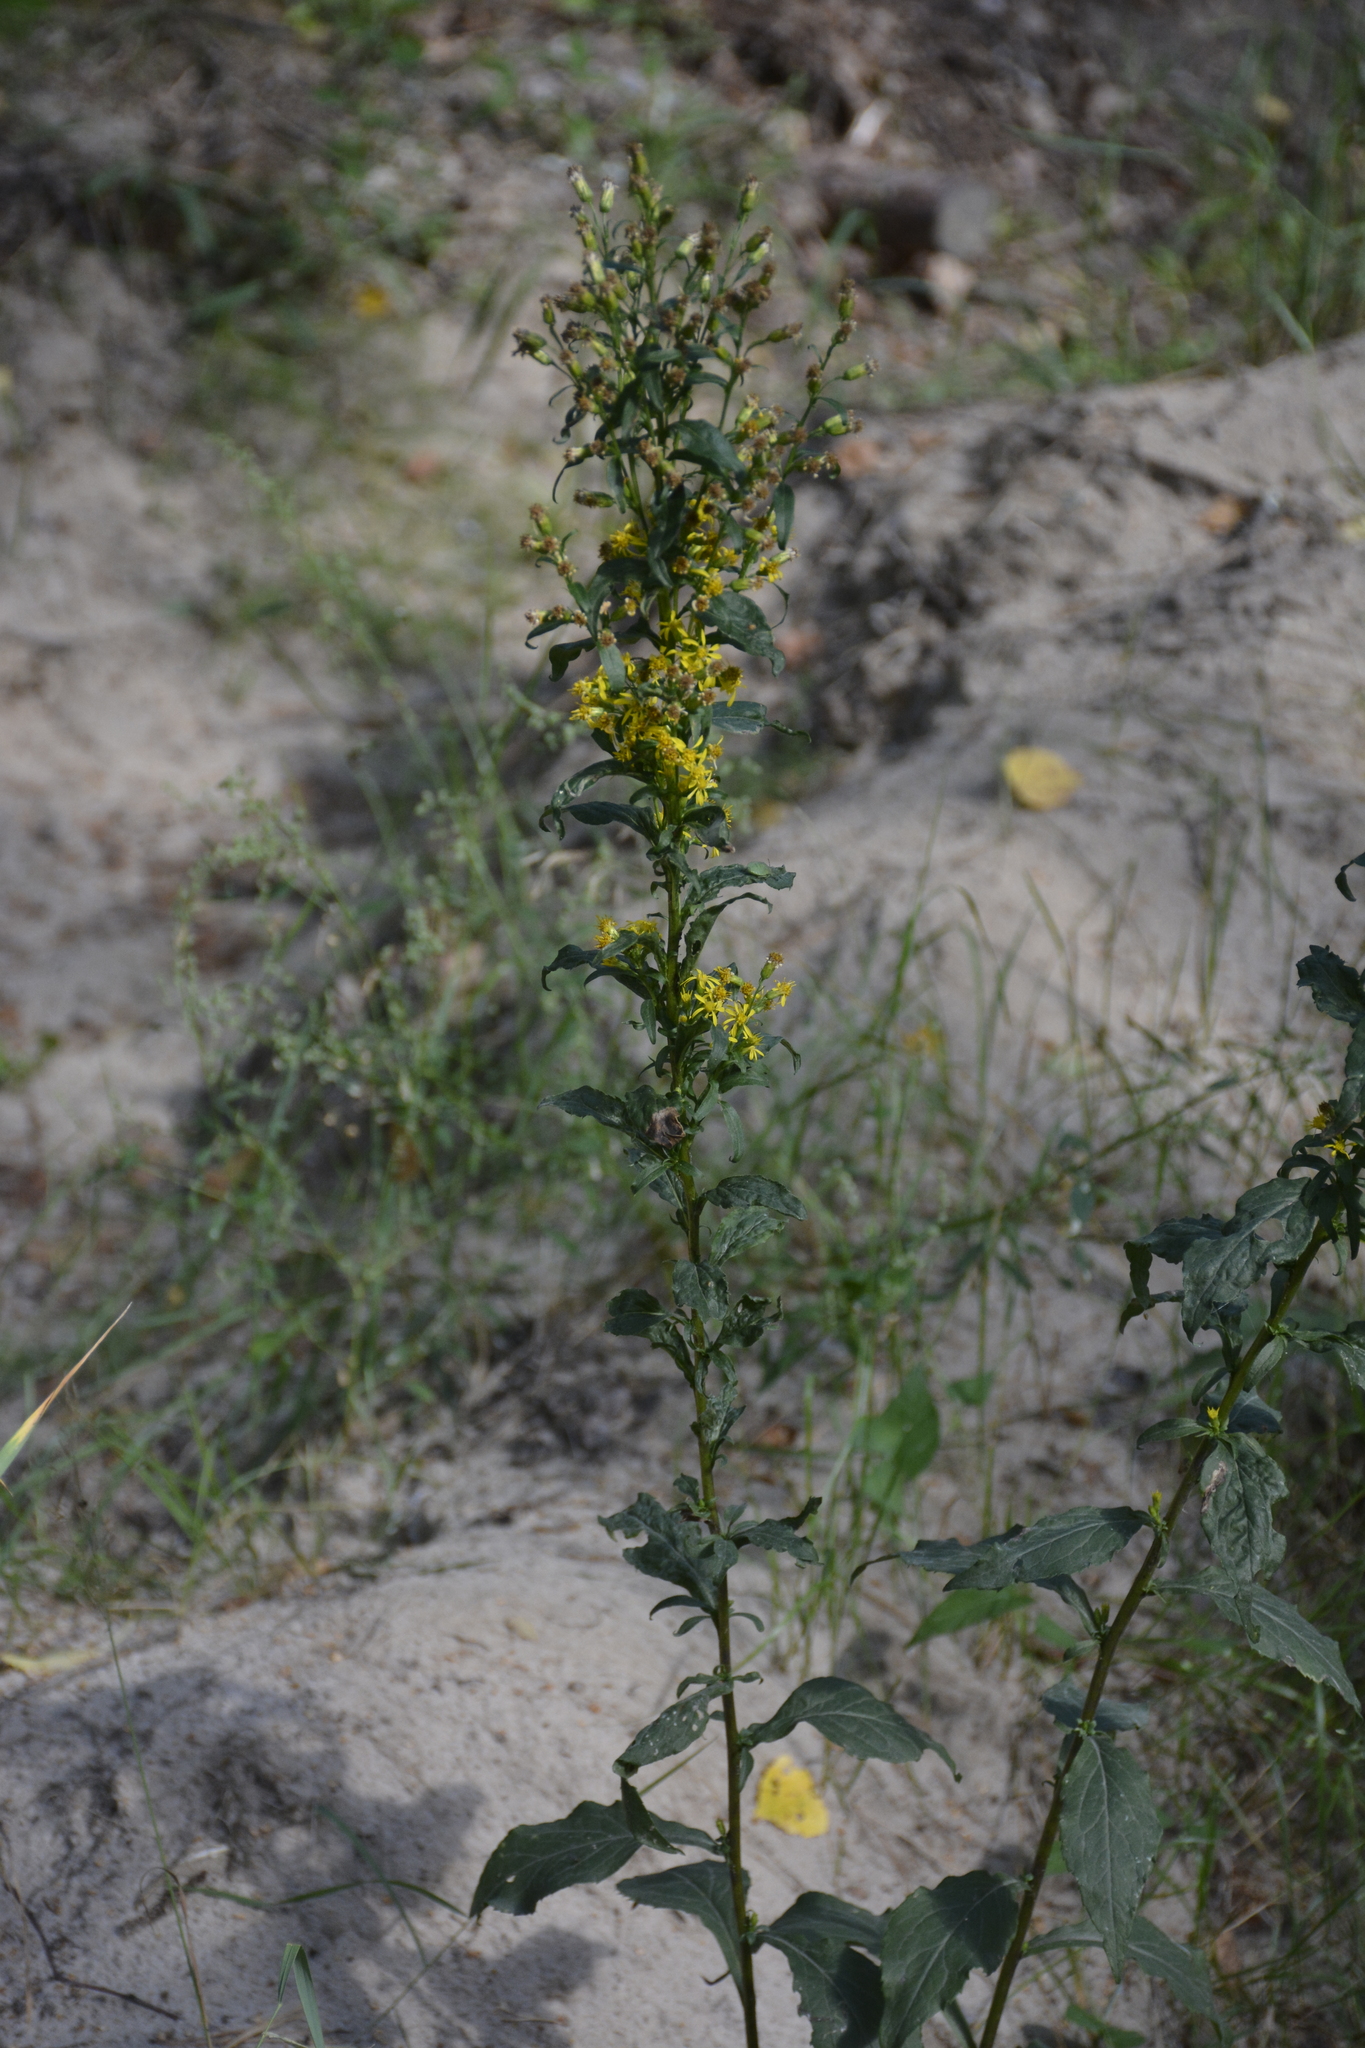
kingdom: Plantae
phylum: Tracheophyta
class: Magnoliopsida
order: Asterales
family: Asteraceae
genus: Solidago
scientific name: Solidago virgaurea
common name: Goldenrod
